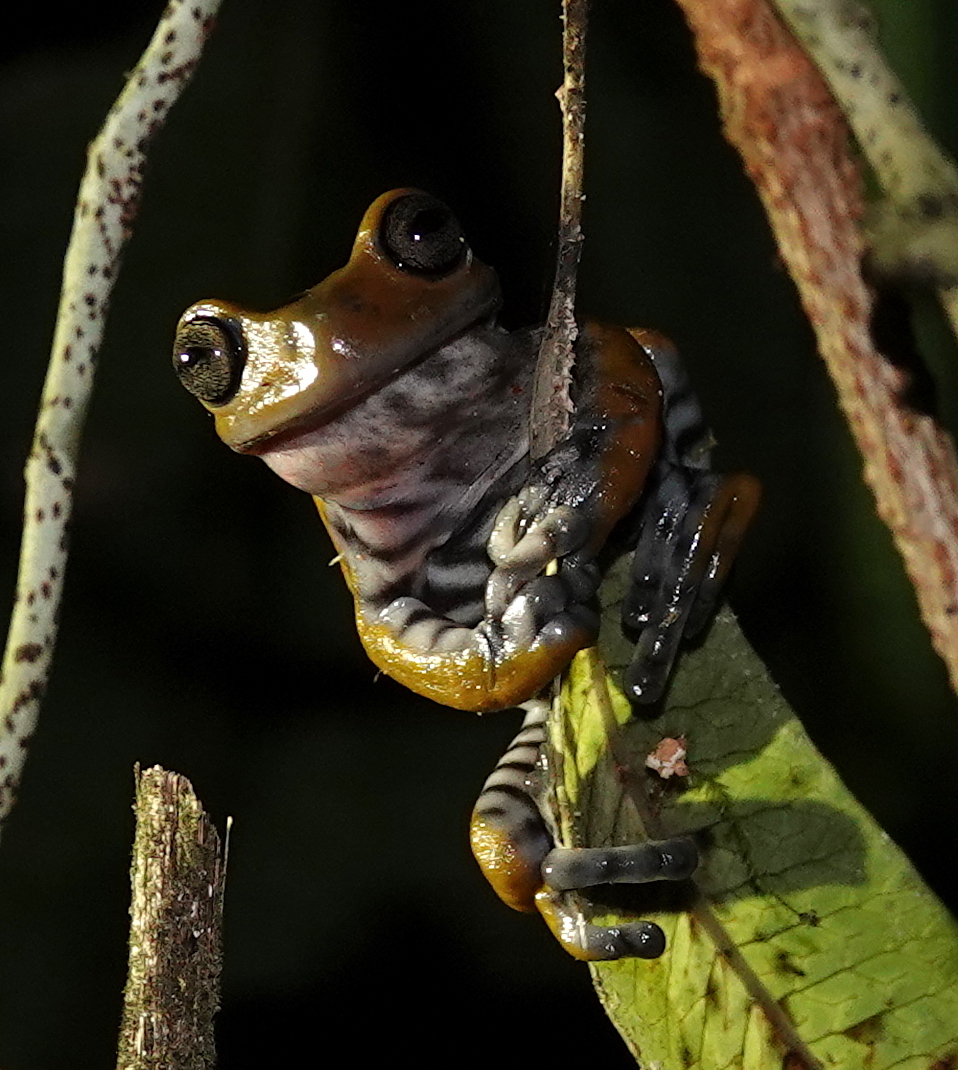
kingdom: Animalia
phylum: Chordata
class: Amphibia
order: Anura
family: Hylidae
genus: Hyloscirtus
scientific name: Hyloscirtus larinopygion
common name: Cordillera central treefrog
